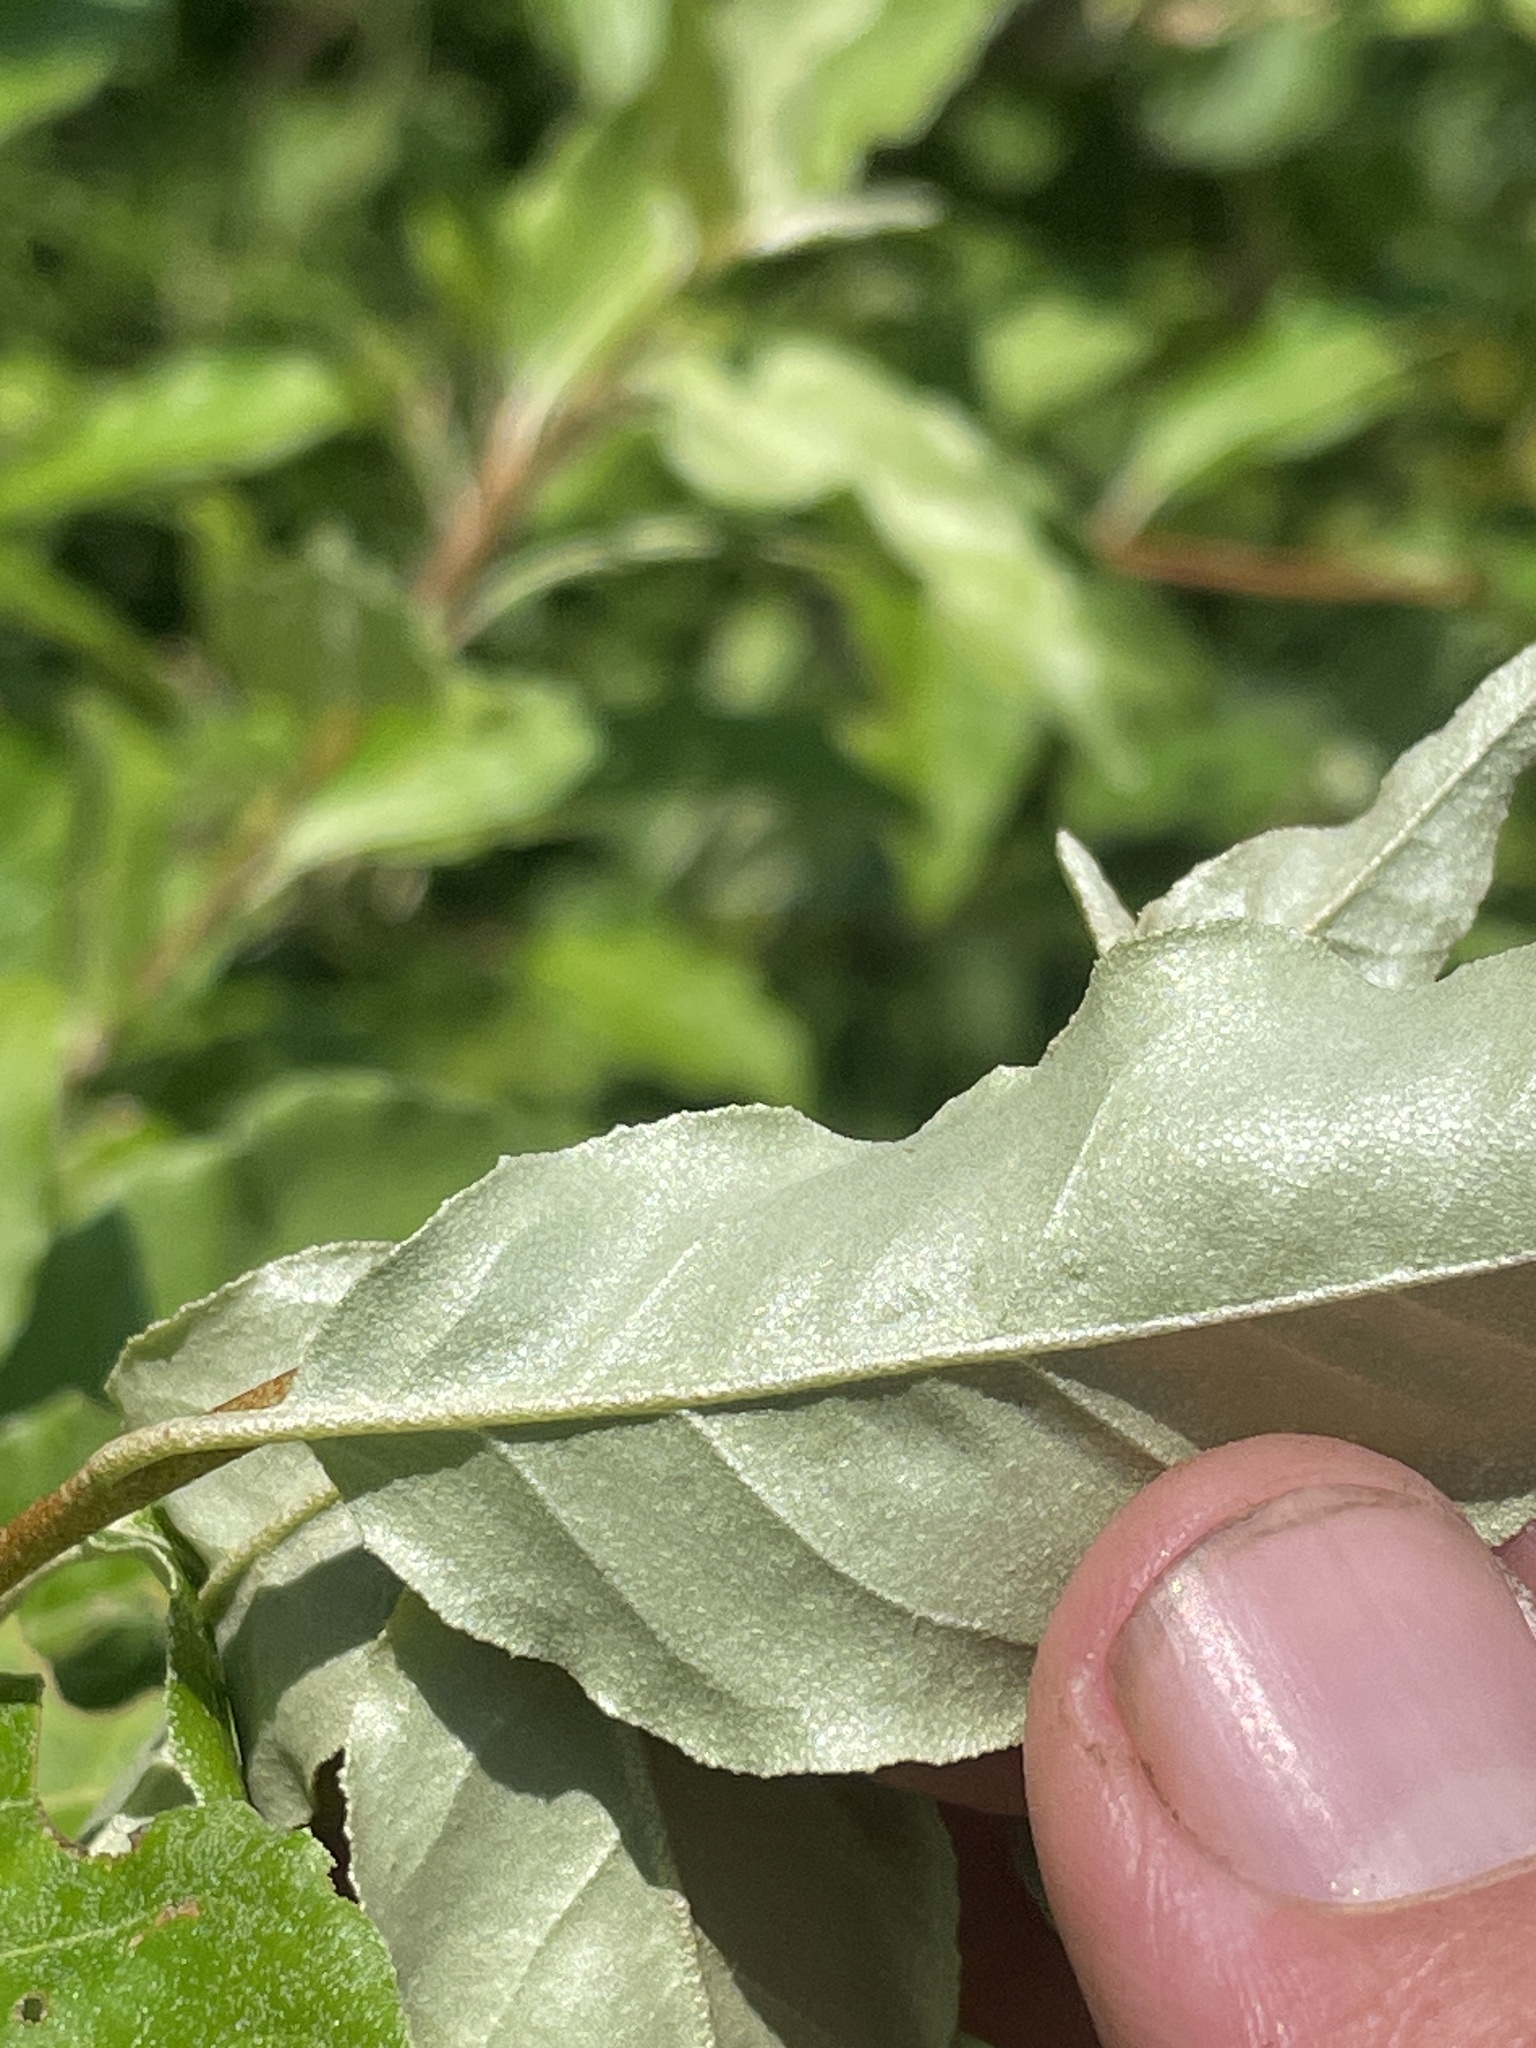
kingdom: Plantae
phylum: Tracheophyta
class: Magnoliopsida
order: Rosales
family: Elaeagnaceae
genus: Elaeagnus
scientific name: Elaeagnus umbellata
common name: Autumn olive
